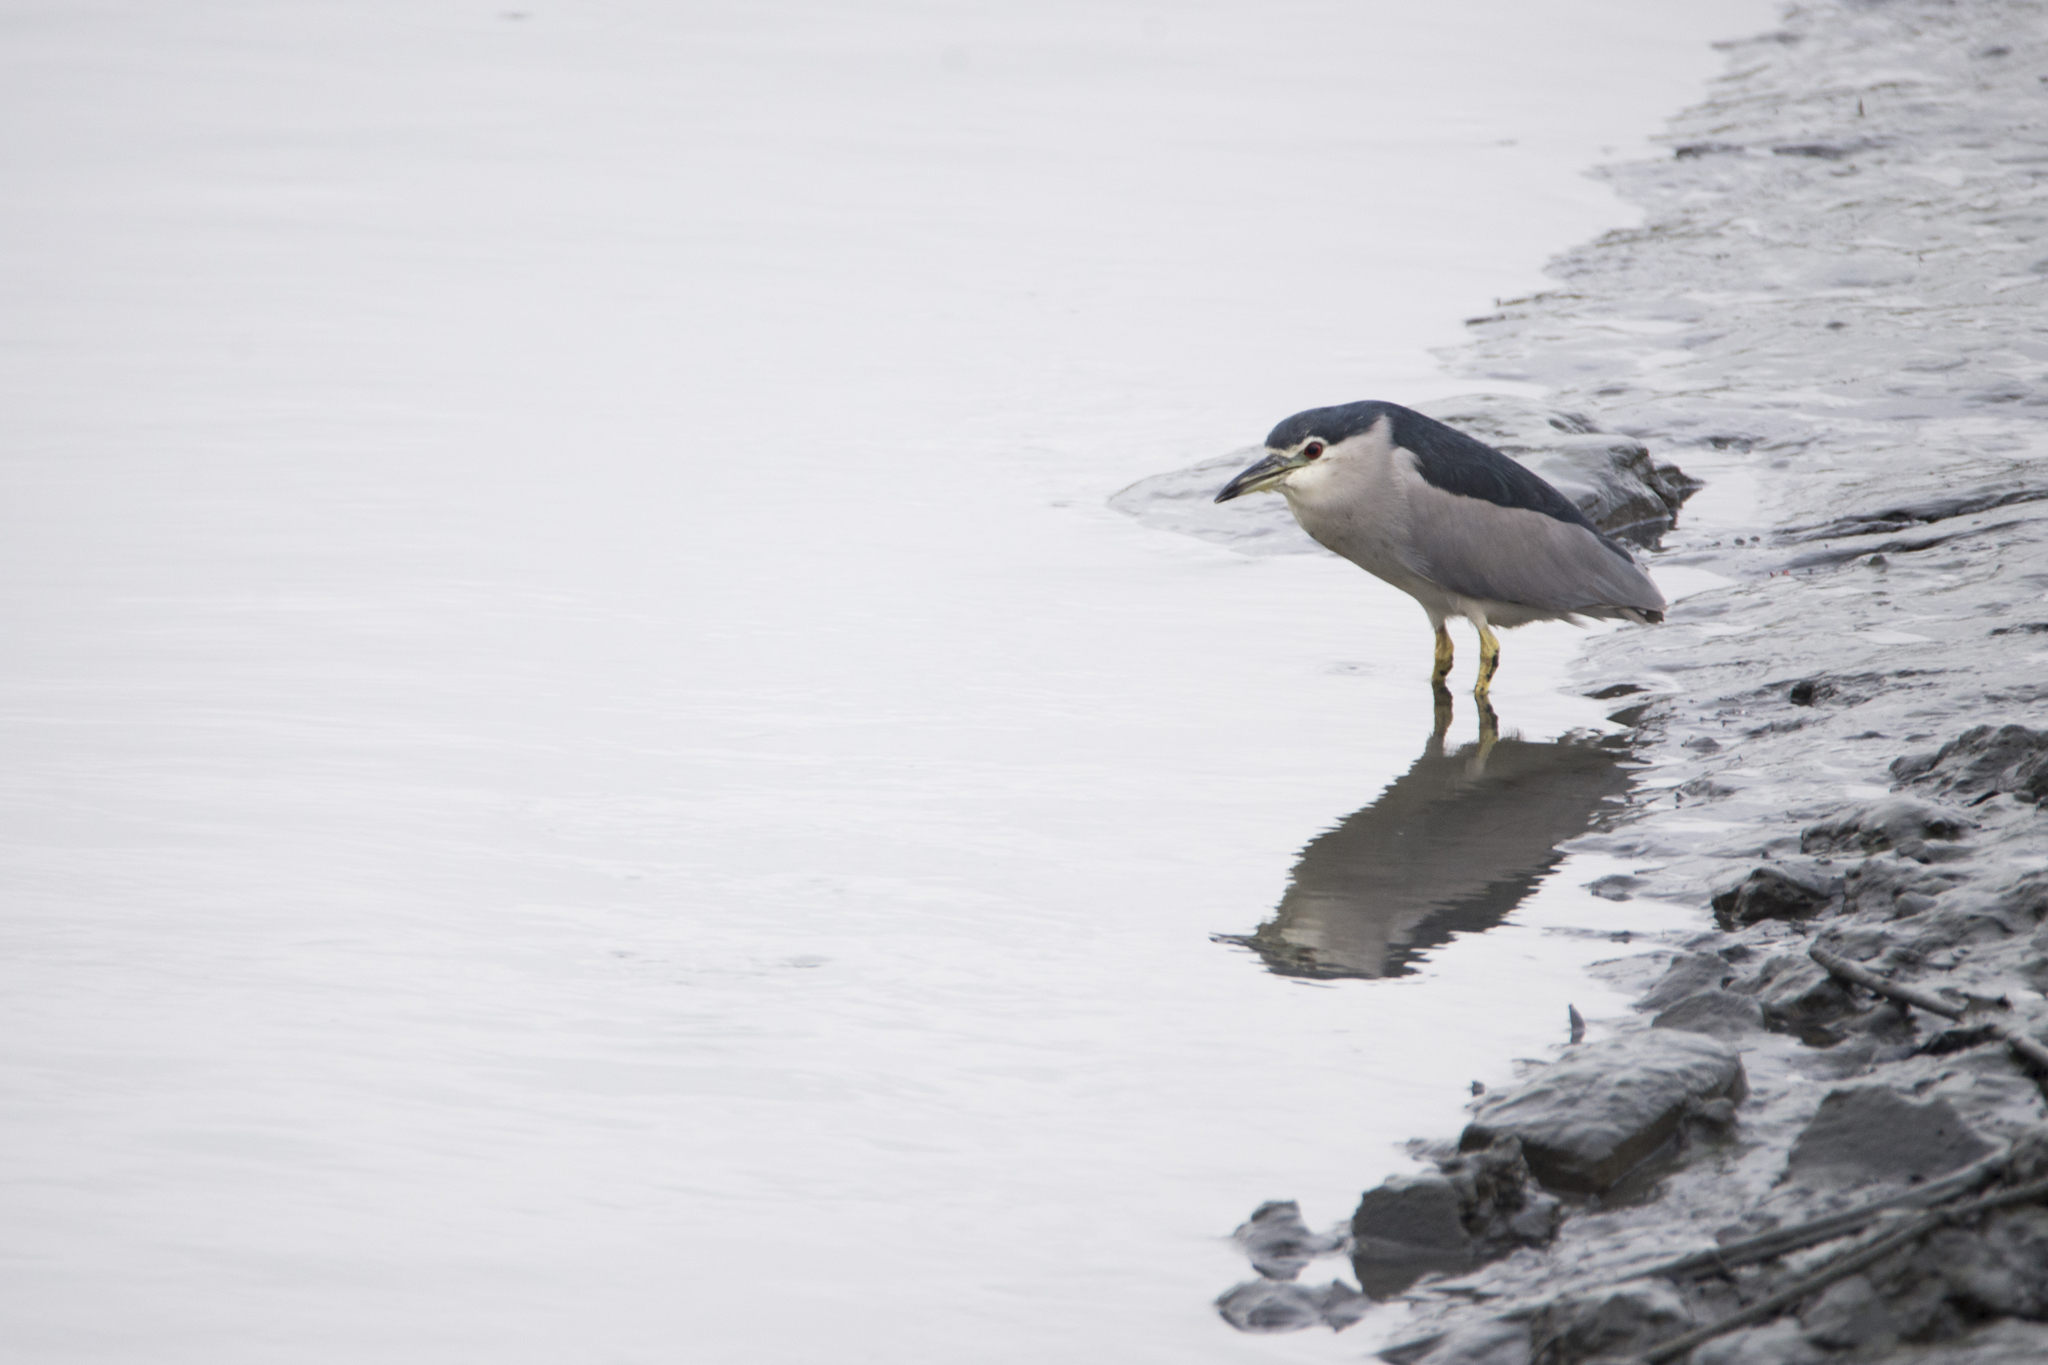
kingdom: Animalia
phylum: Chordata
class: Aves
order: Pelecaniformes
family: Ardeidae
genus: Nycticorax
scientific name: Nycticorax nycticorax
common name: Black-crowned night heron
